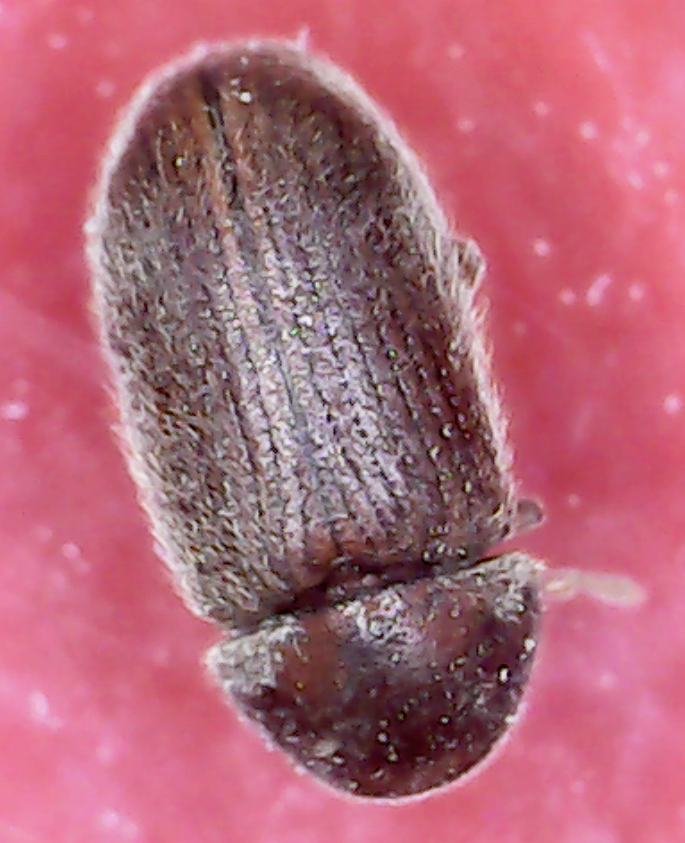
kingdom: Animalia
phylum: Arthropoda
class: Insecta
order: Coleoptera
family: Anobiidae
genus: Stegobium
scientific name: Stegobium paniceum
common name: Drugstore beetle
